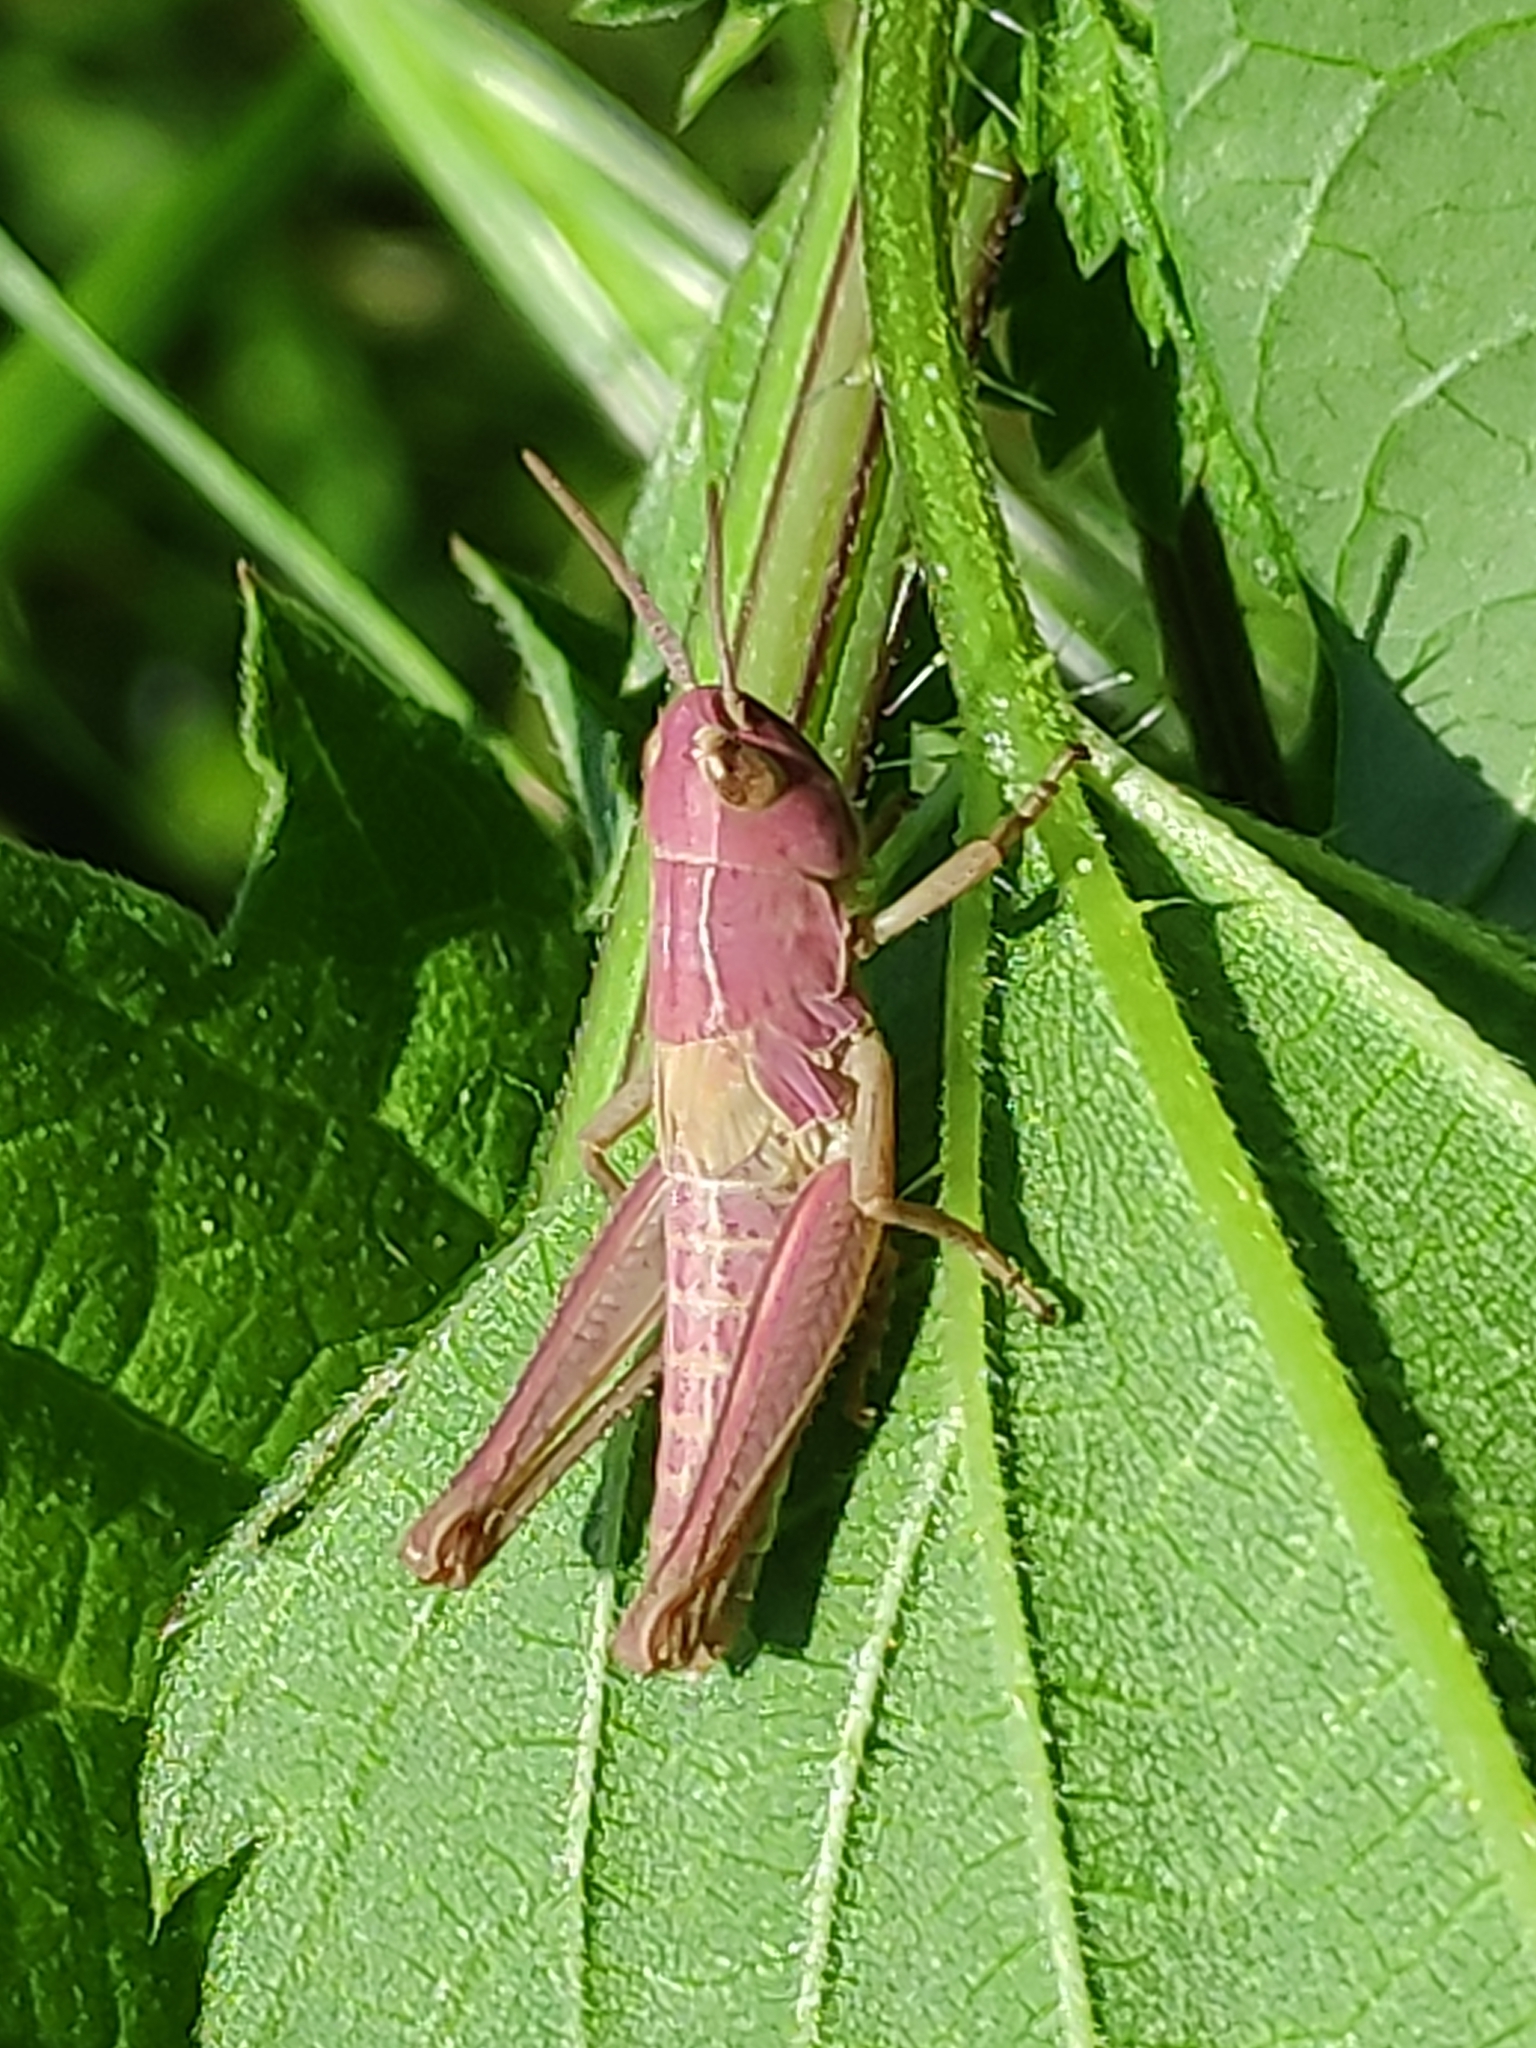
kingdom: Animalia
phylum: Arthropoda
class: Insecta
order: Orthoptera
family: Acrididae
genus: Pseudochorthippus
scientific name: Pseudochorthippus parallelus
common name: Meadow grasshopper
